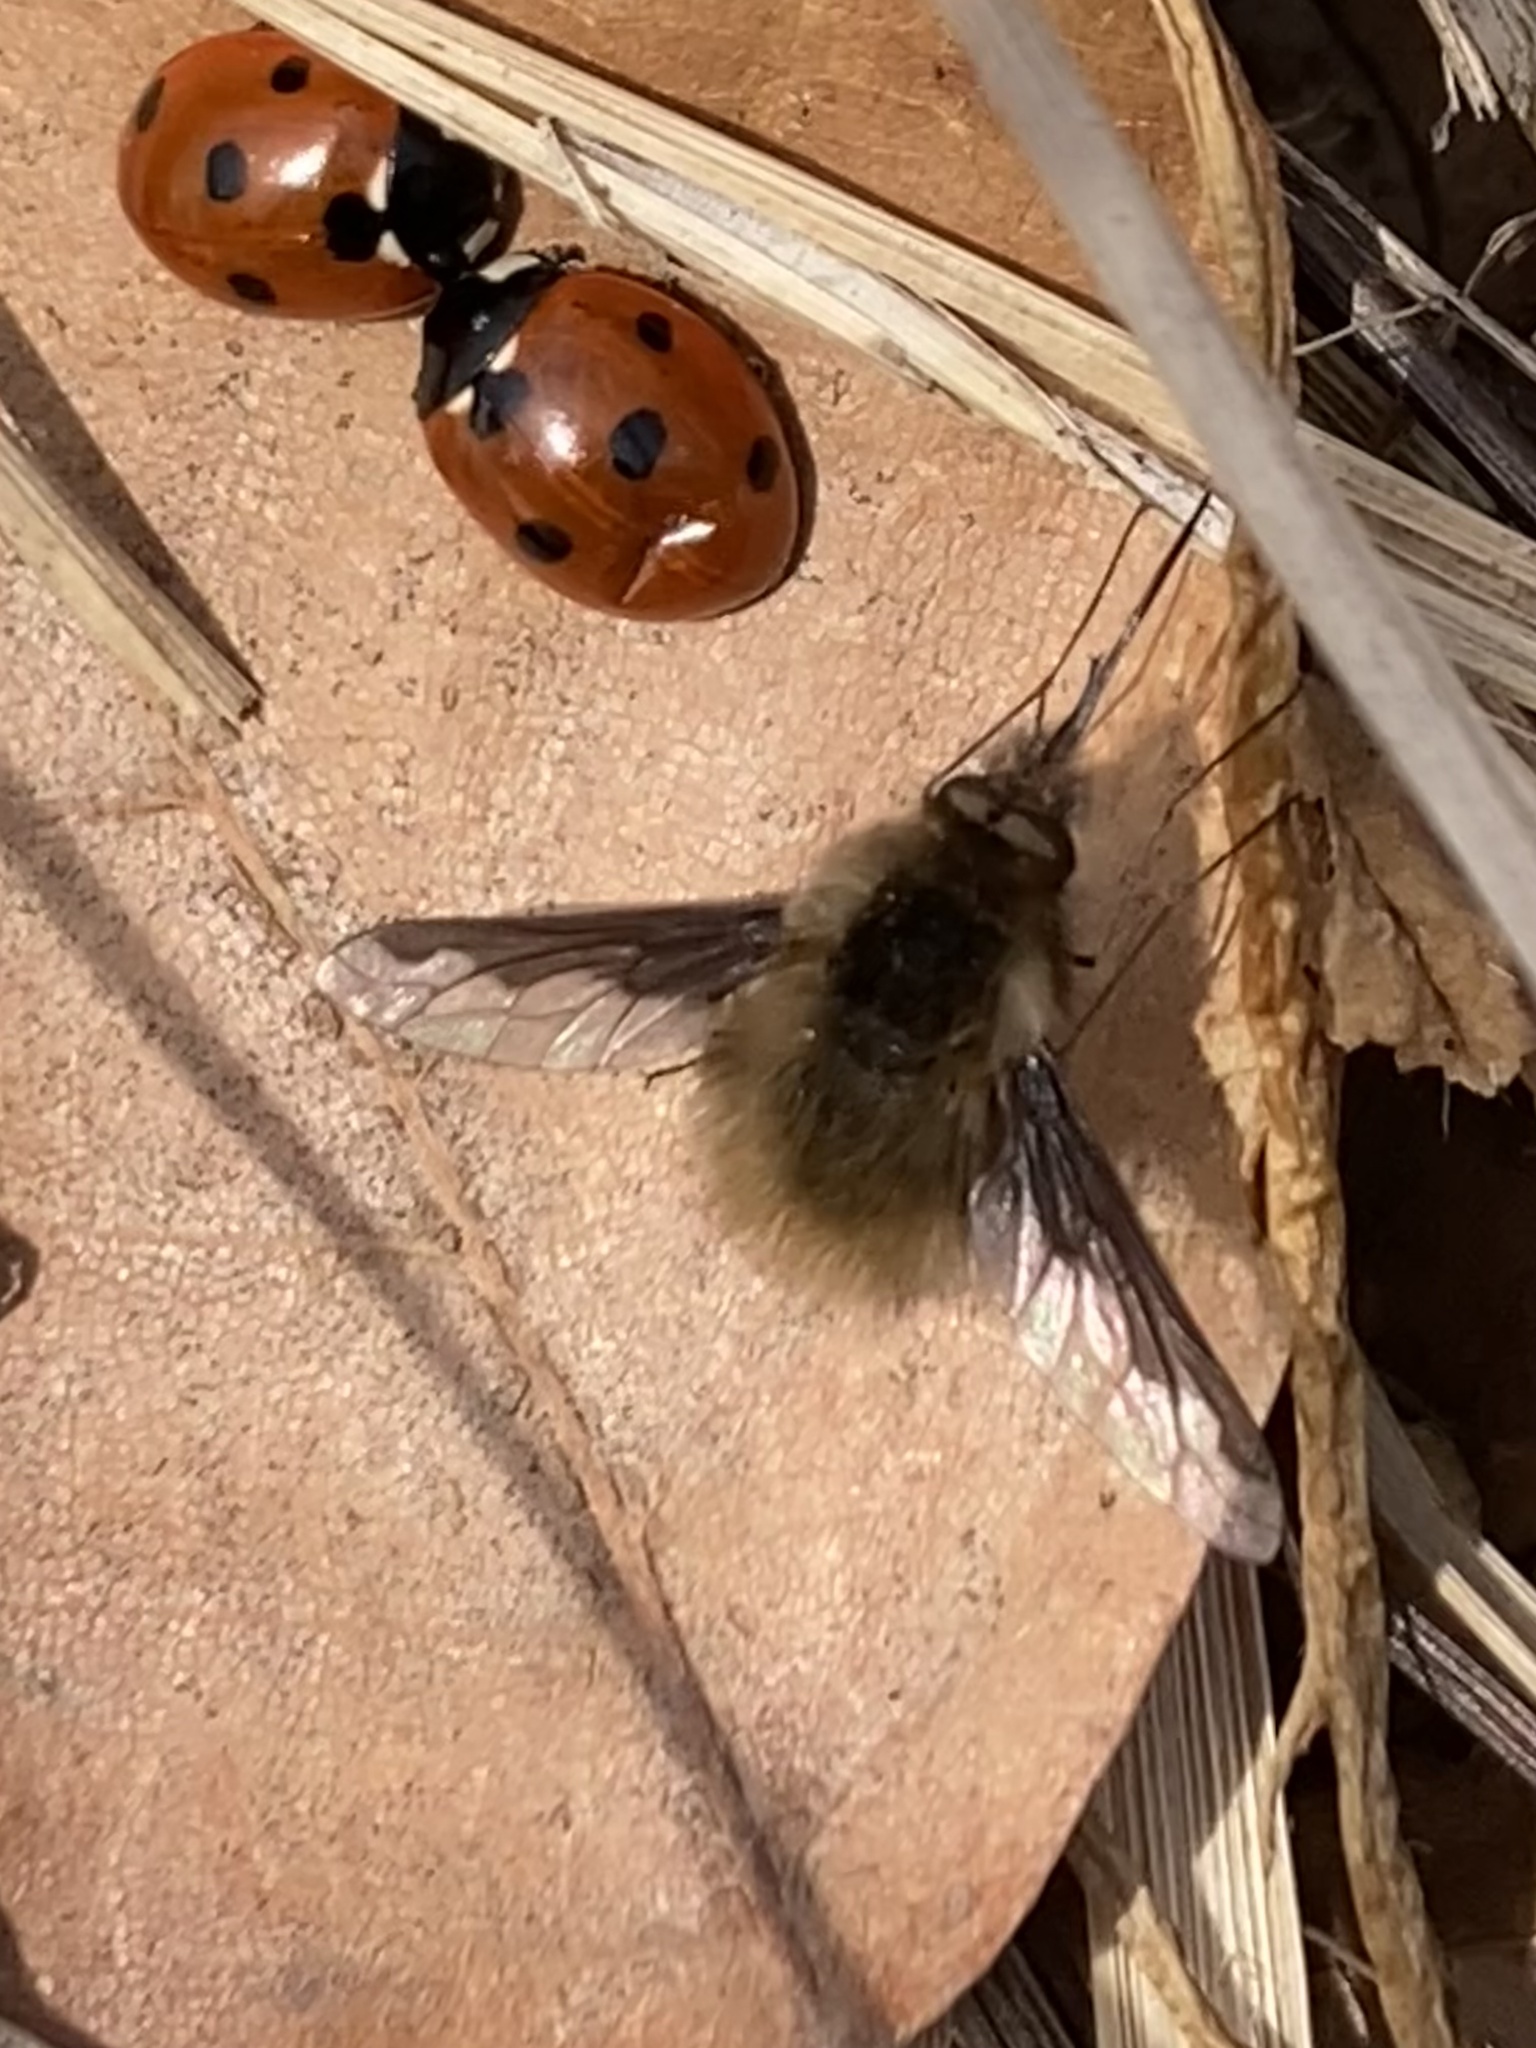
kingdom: Animalia
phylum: Arthropoda
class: Insecta
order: Diptera
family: Bombyliidae
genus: Bombylius
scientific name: Bombylius major
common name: Bee fly
